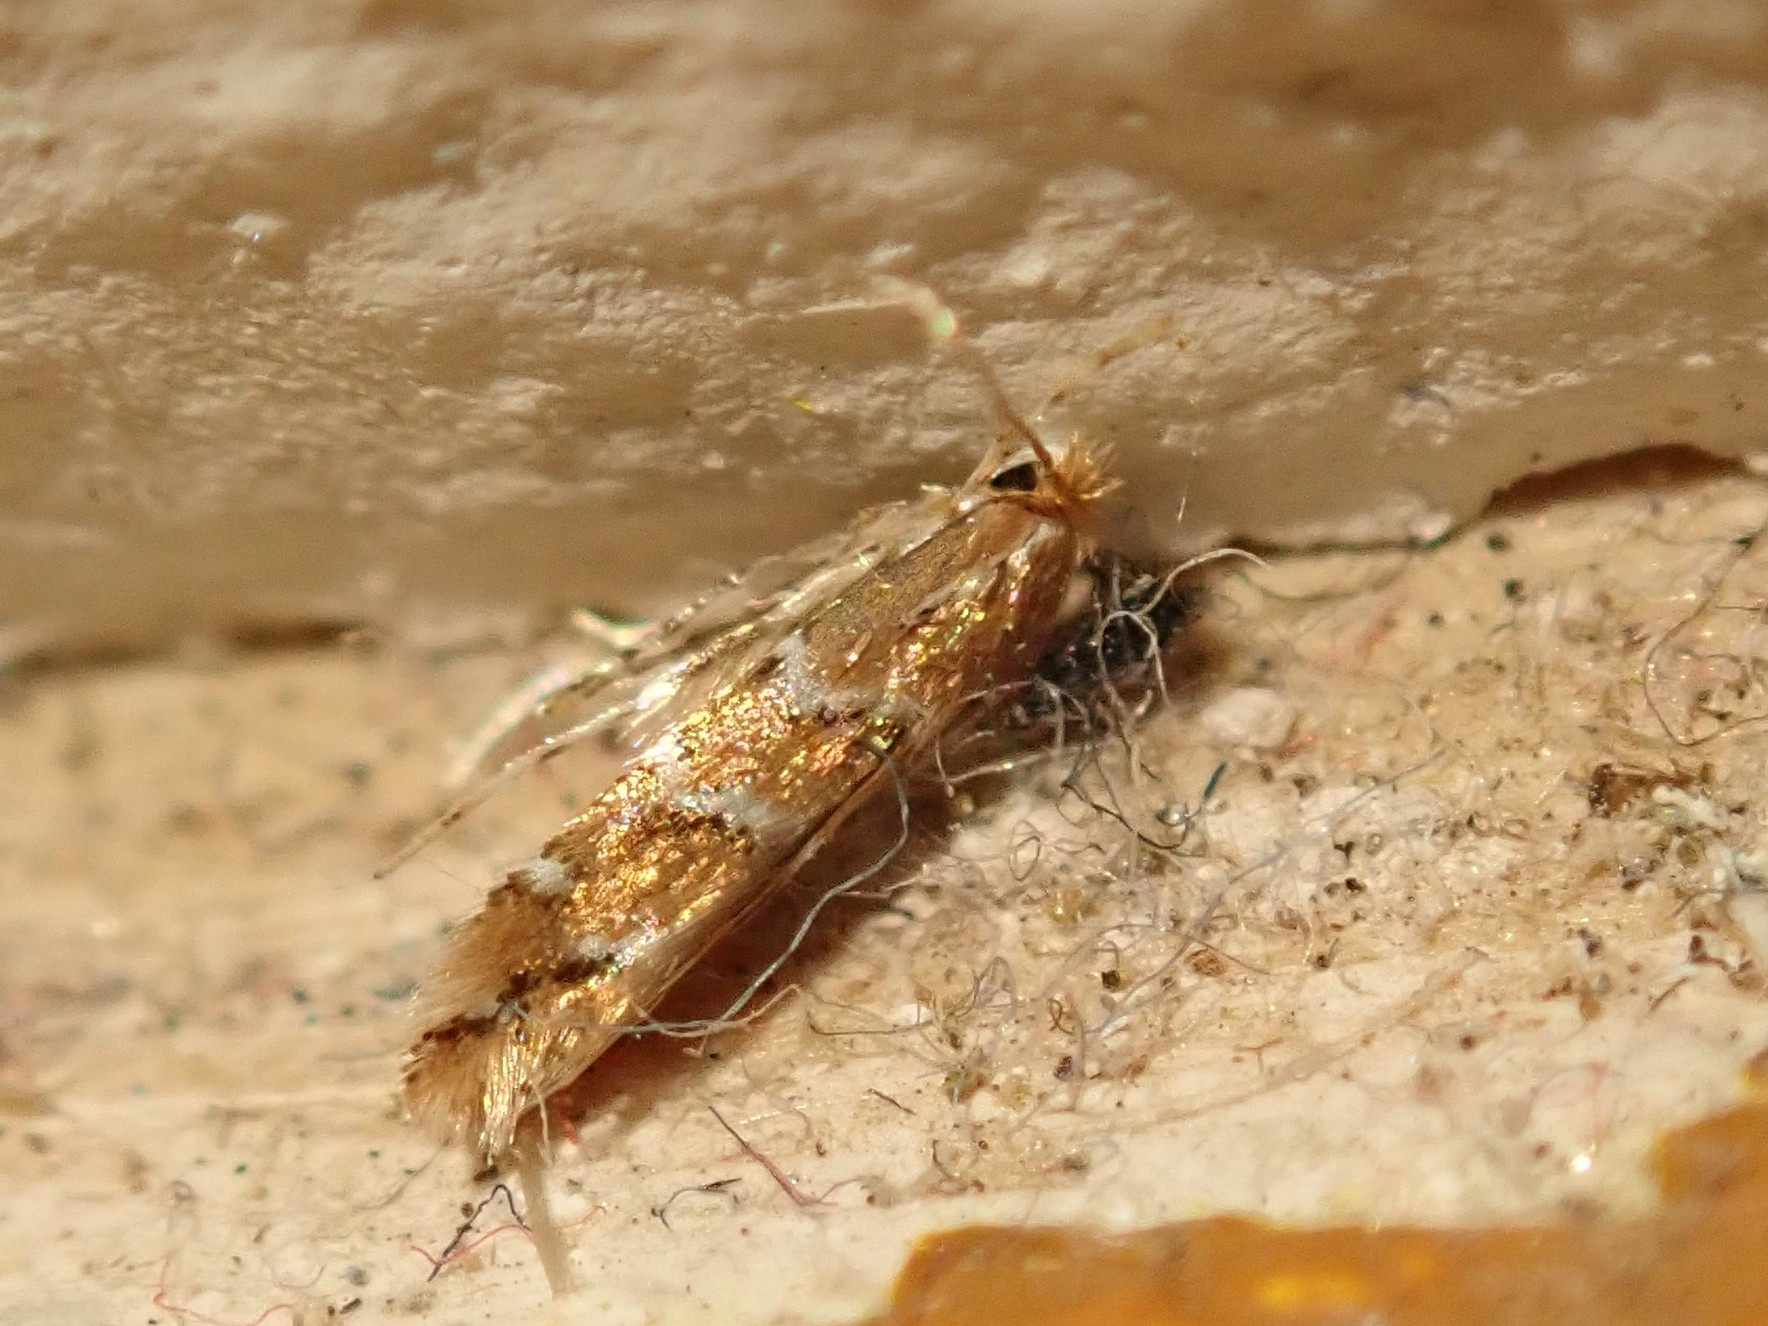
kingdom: Animalia
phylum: Arthropoda
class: Insecta
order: Lepidoptera
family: Gracillariidae
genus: Cameraria
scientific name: Cameraria ohridella
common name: Horse-chestnut leaf-miner
